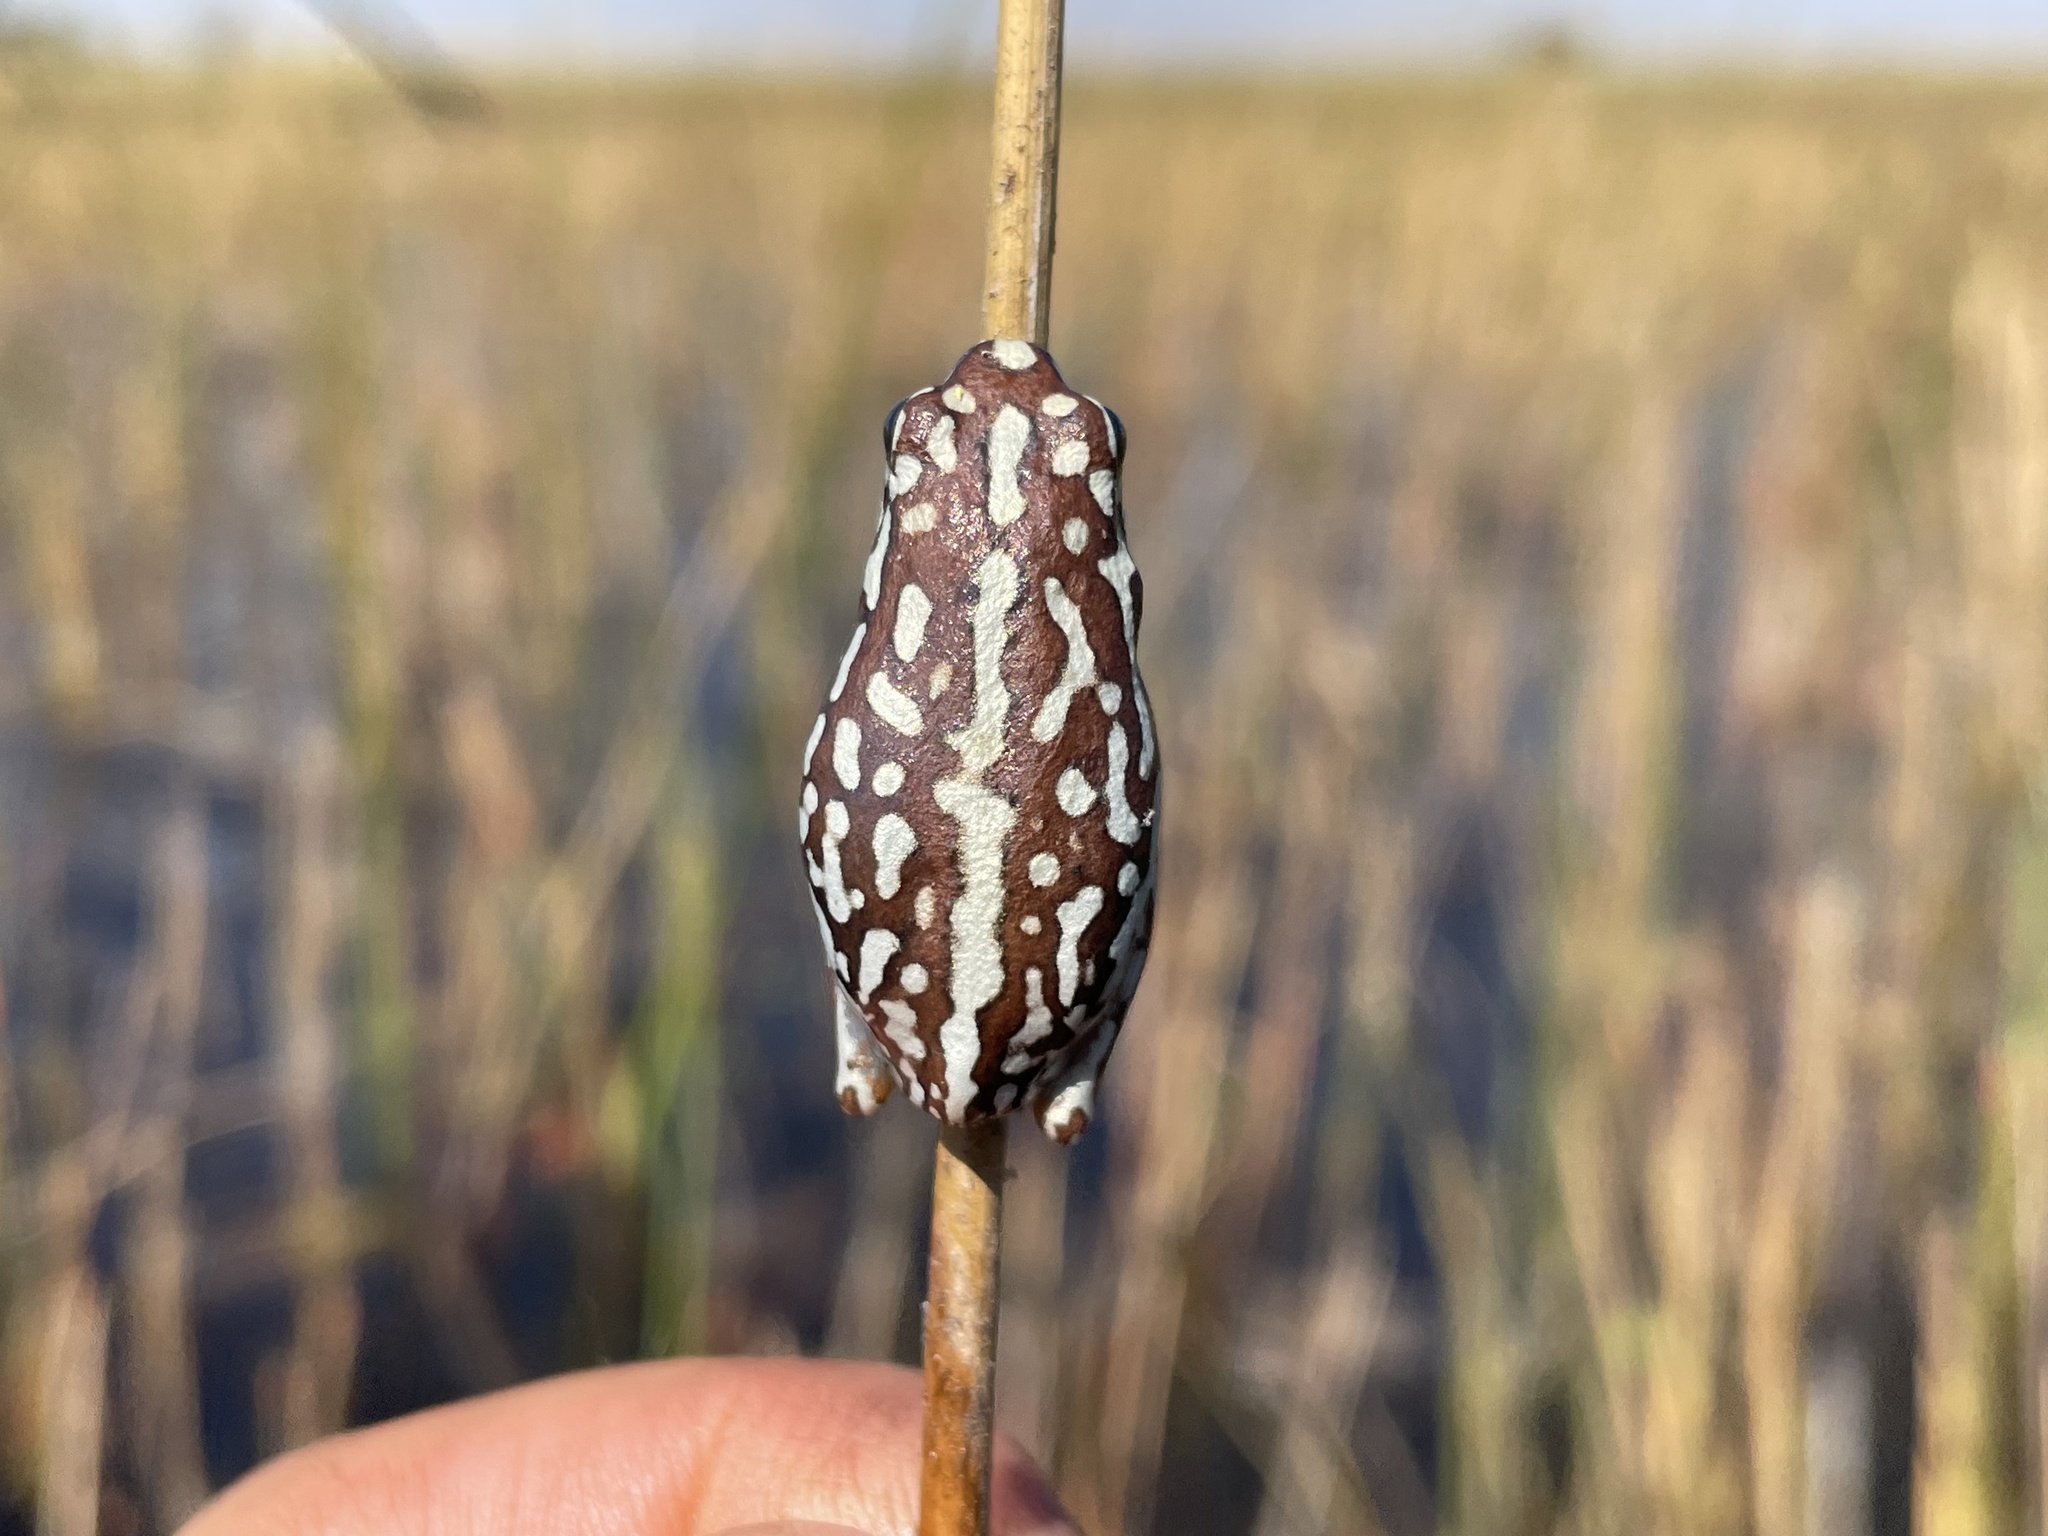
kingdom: Animalia
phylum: Chordata
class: Amphibia
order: Anura
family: Hyperoliidae
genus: Hyperolius
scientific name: Hyperolius parallelus
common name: Angolan reed frog
